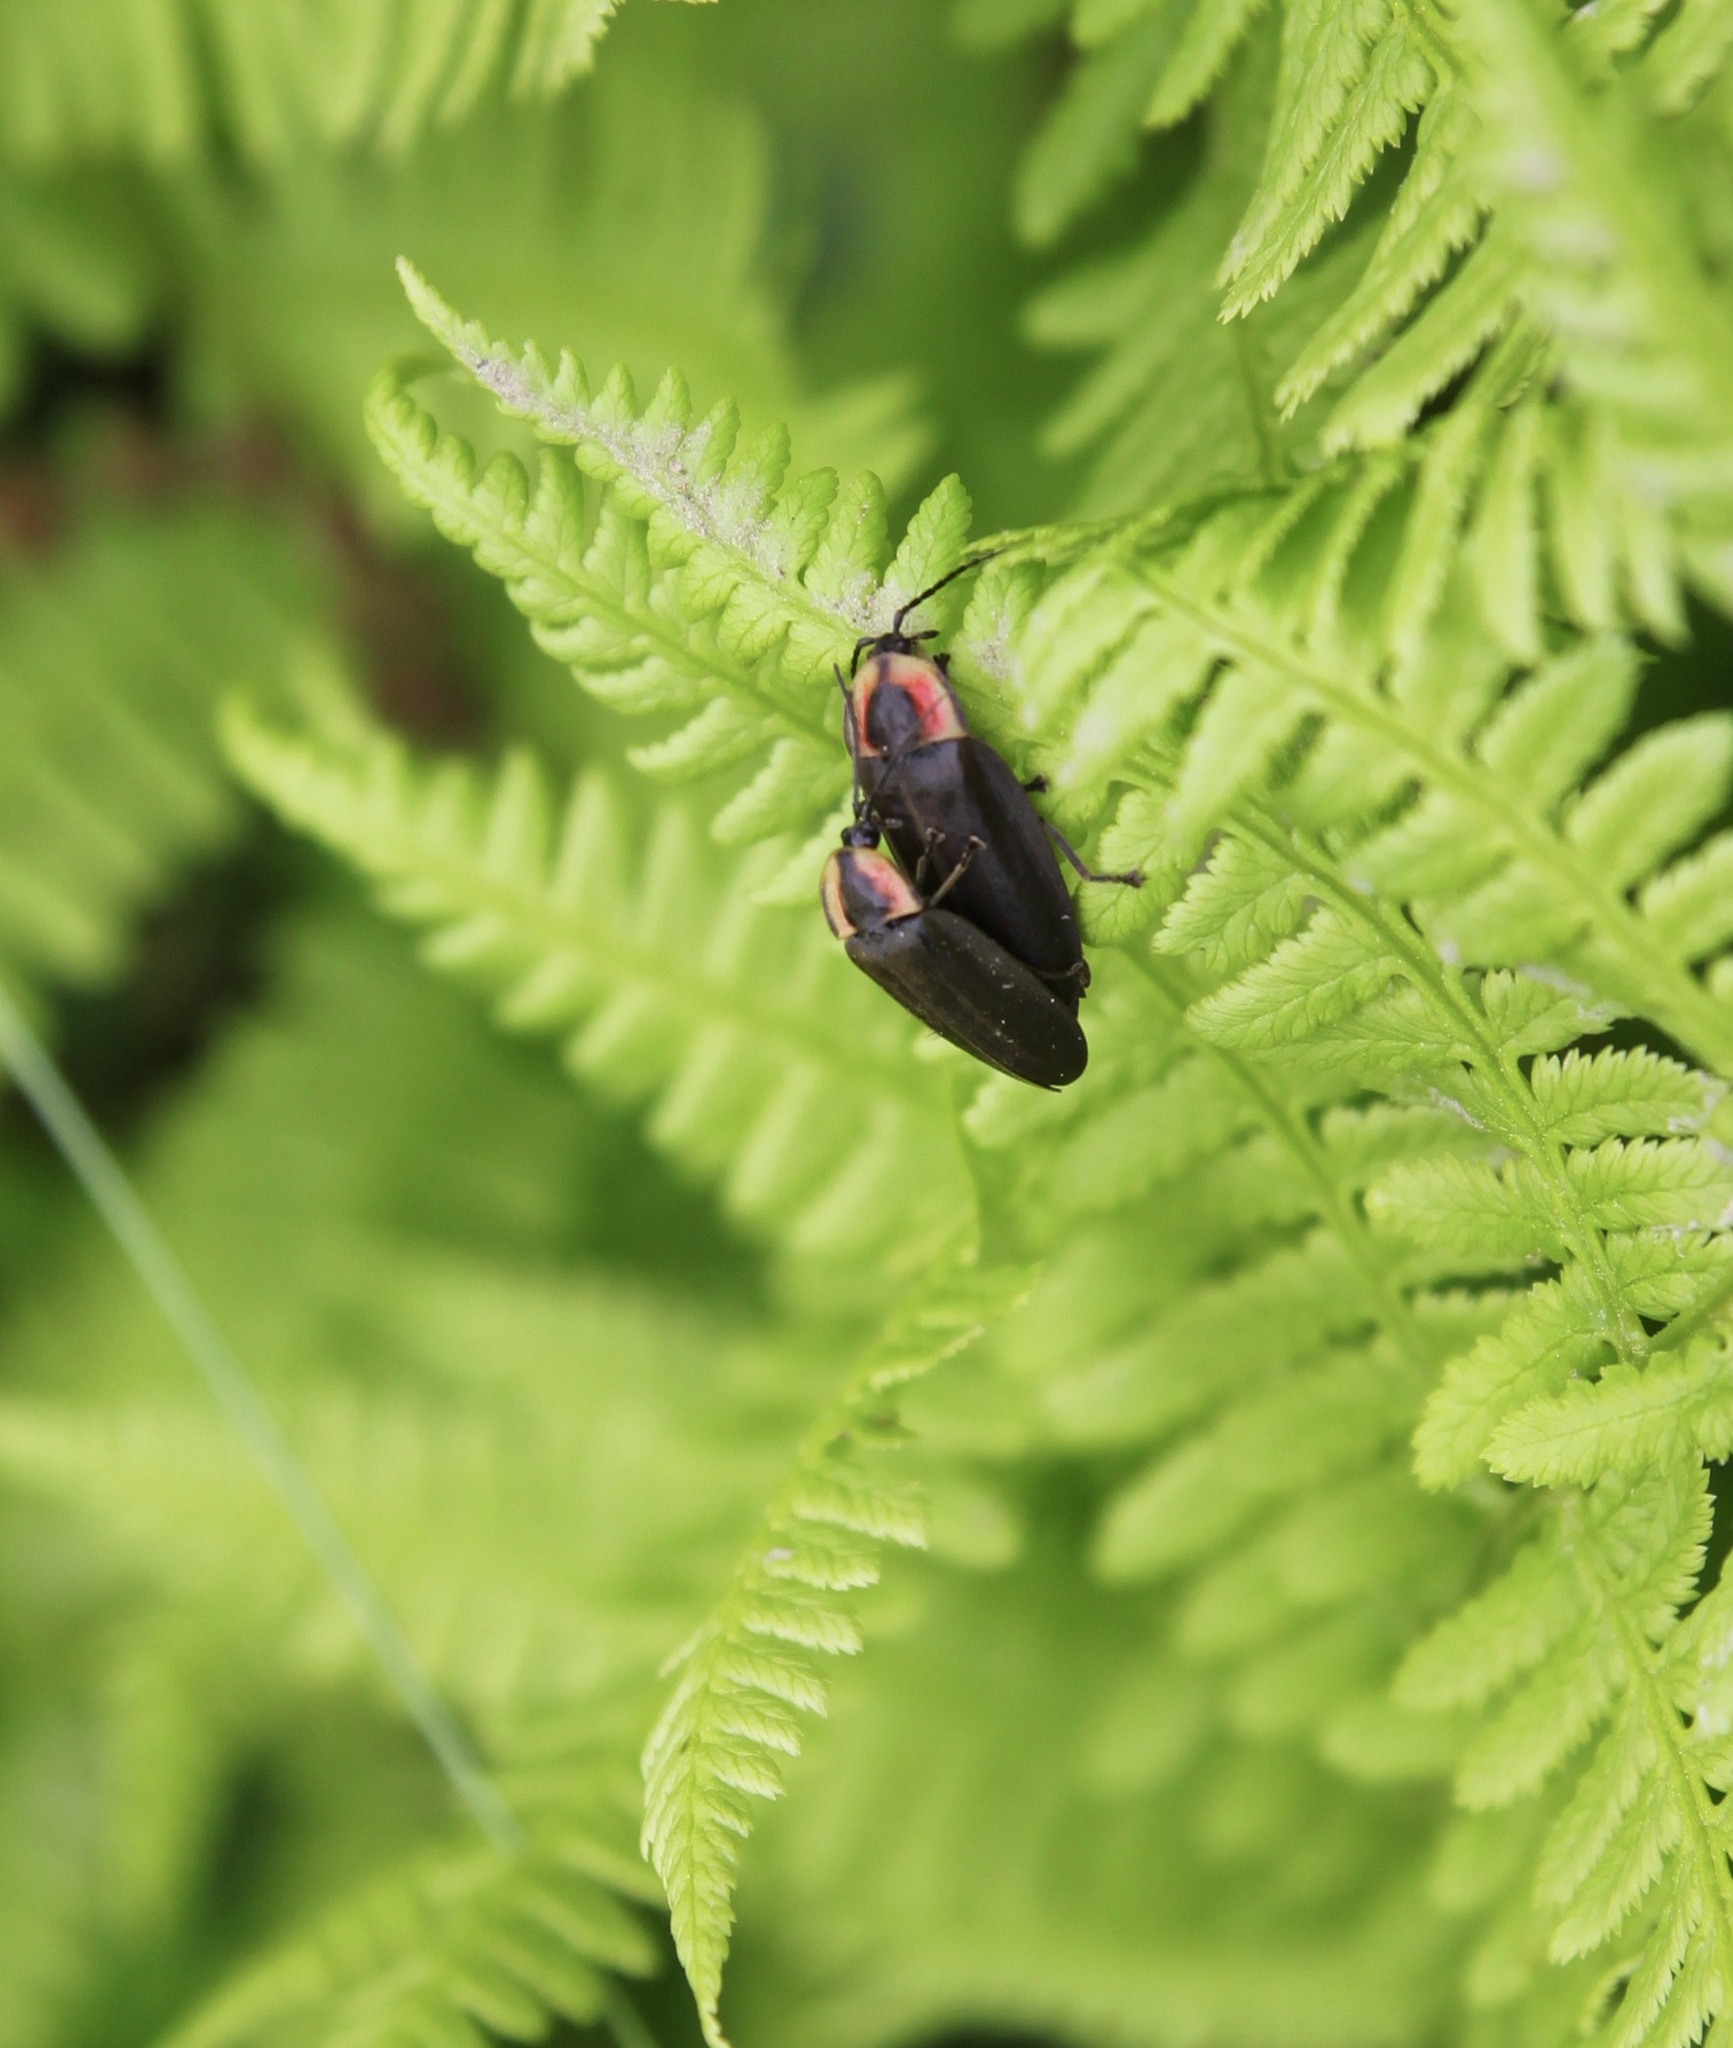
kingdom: Animalia
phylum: Arthropoda
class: Insecta
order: Coleoptera
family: Lampyridae
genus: Photinus
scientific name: Photinus corrusca
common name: Winter firefly
